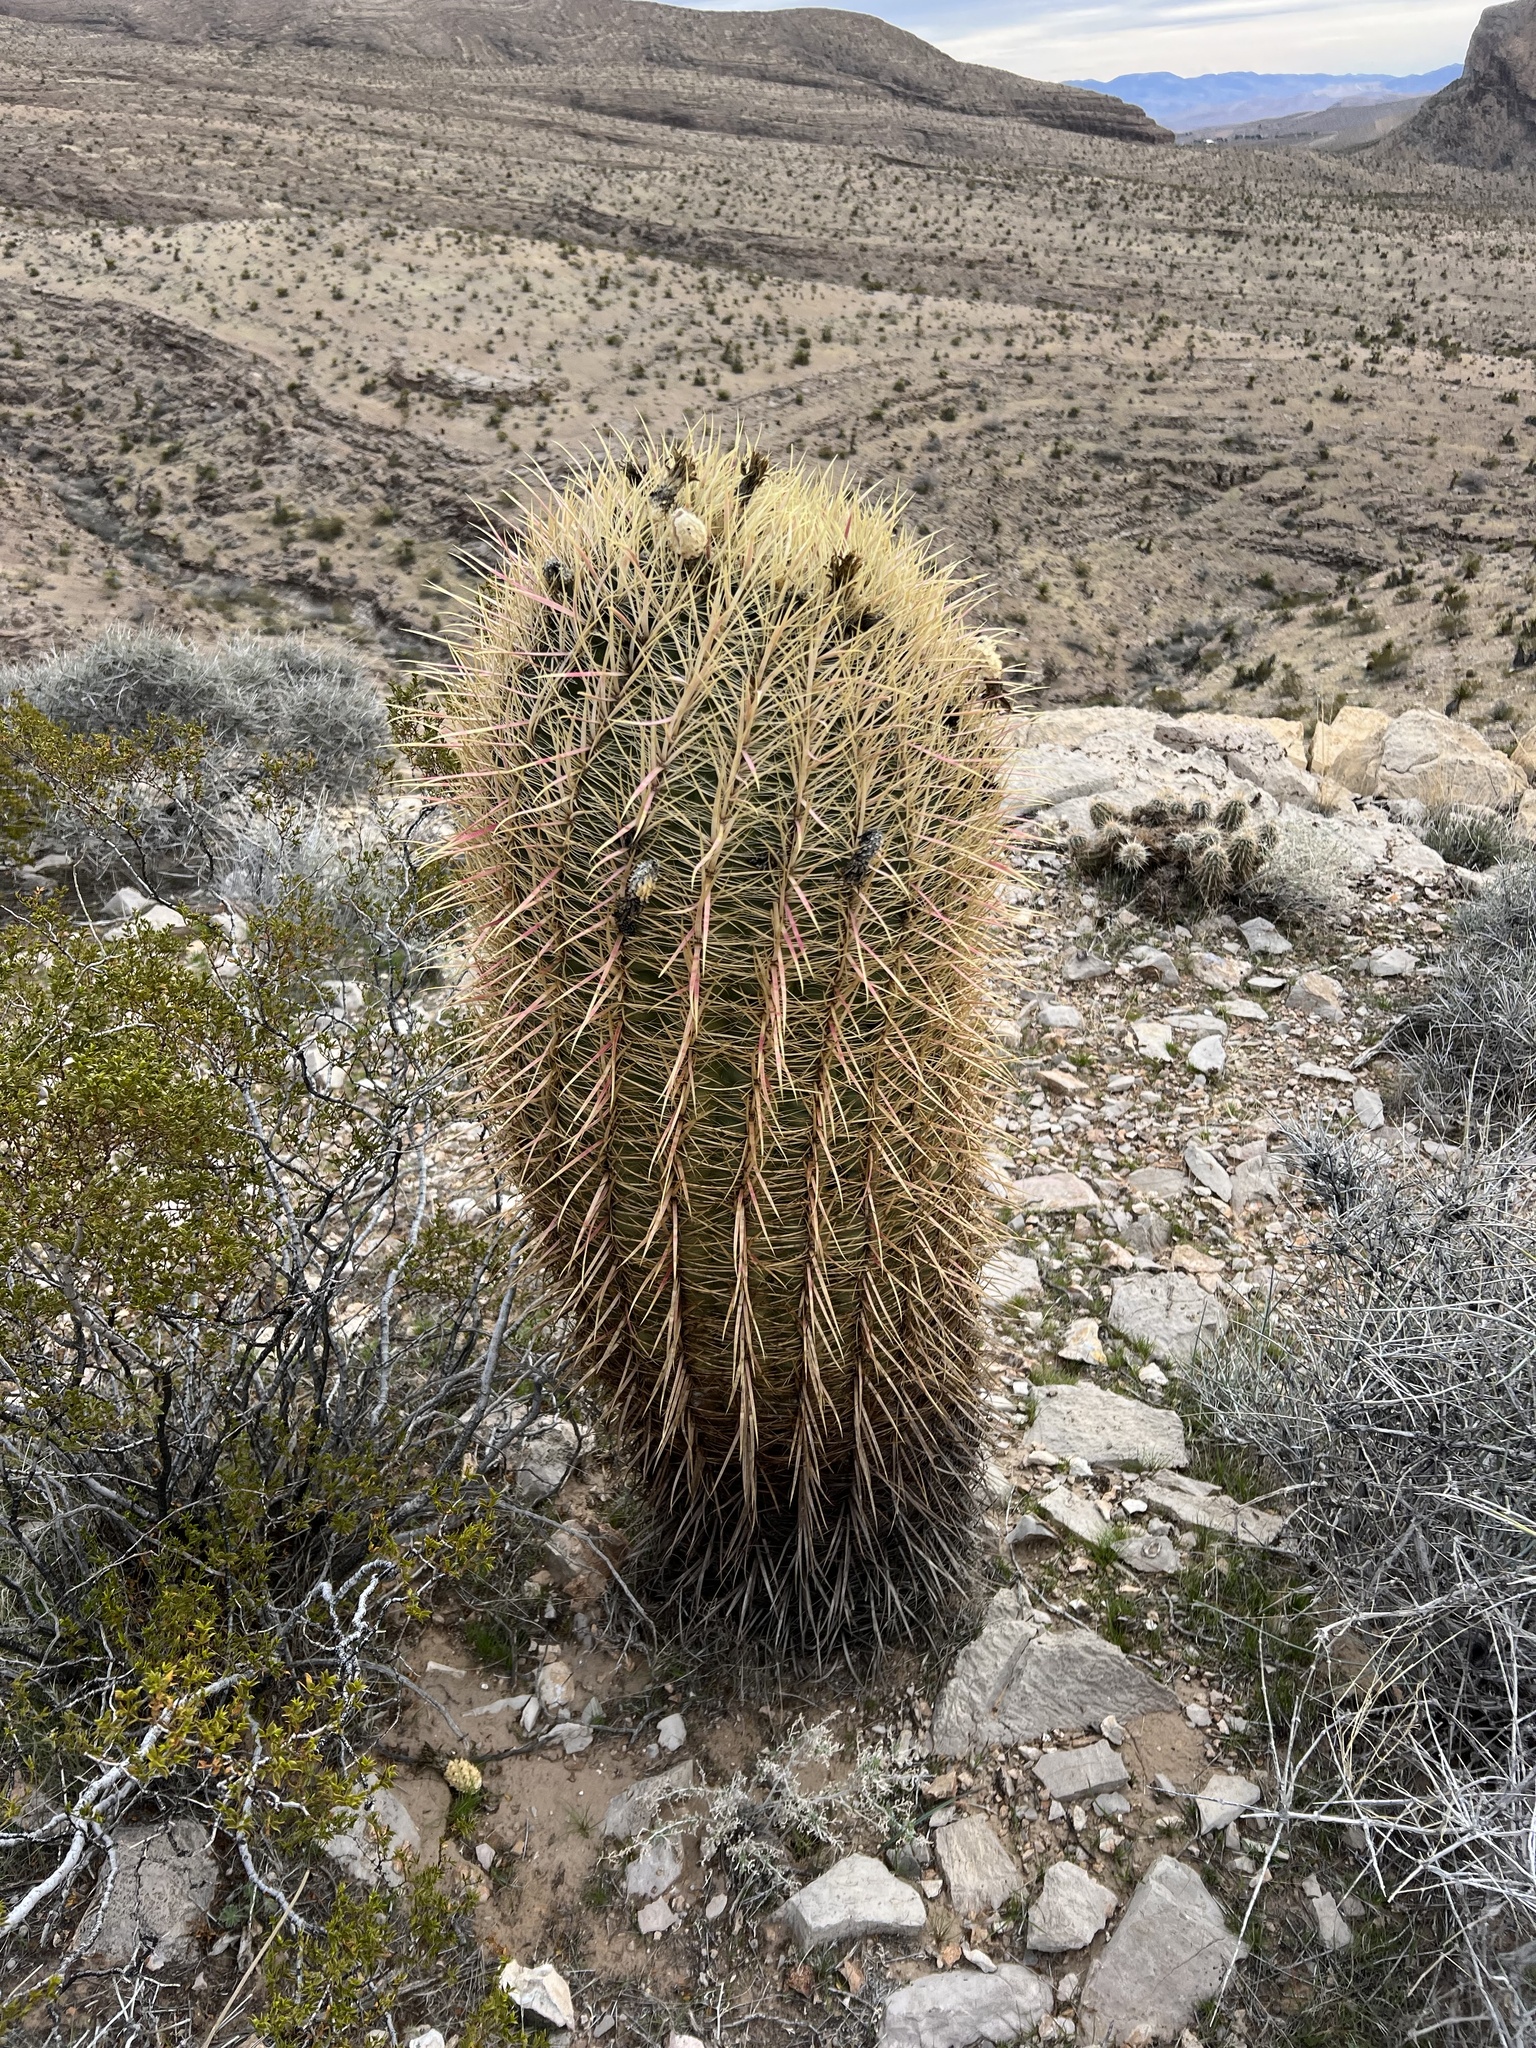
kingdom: Plantae
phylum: Tracheophyta
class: Magnoliopsida
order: Caryophyllales
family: Cactaceae
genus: Ferocactus
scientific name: Ferocactus cylindraceus
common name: California barrel cactus
